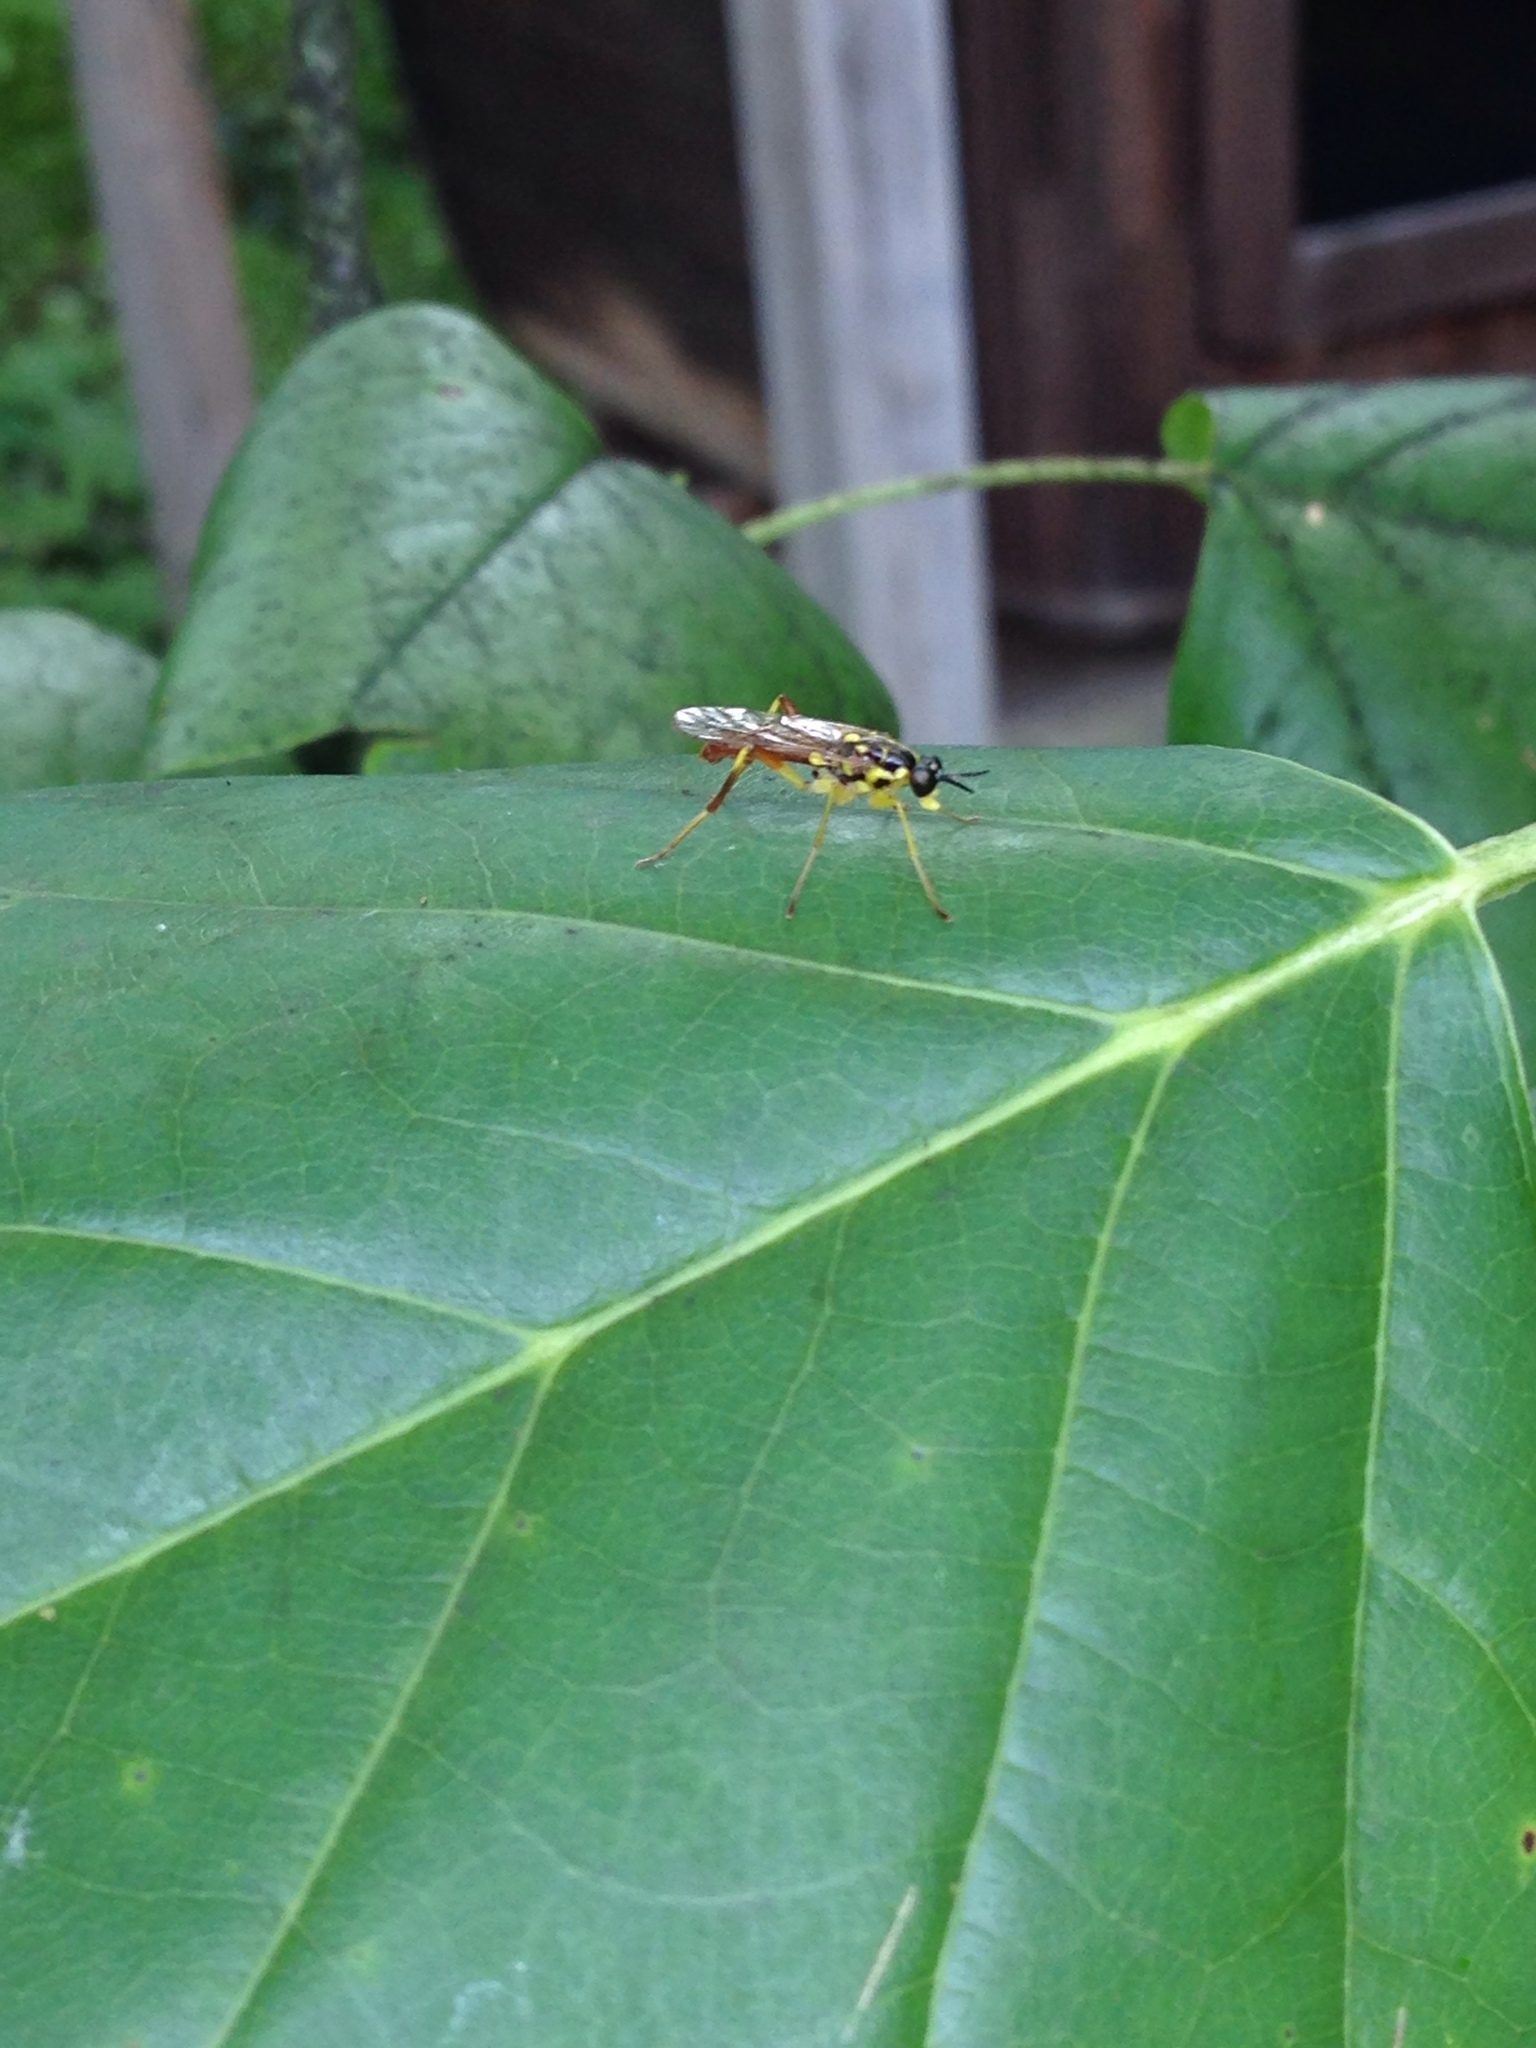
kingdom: Animalia
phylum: Arthropoda
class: Insecta
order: Diptera
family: Xylomyidae
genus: Xylomya
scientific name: Xylomya tenthredinoides
